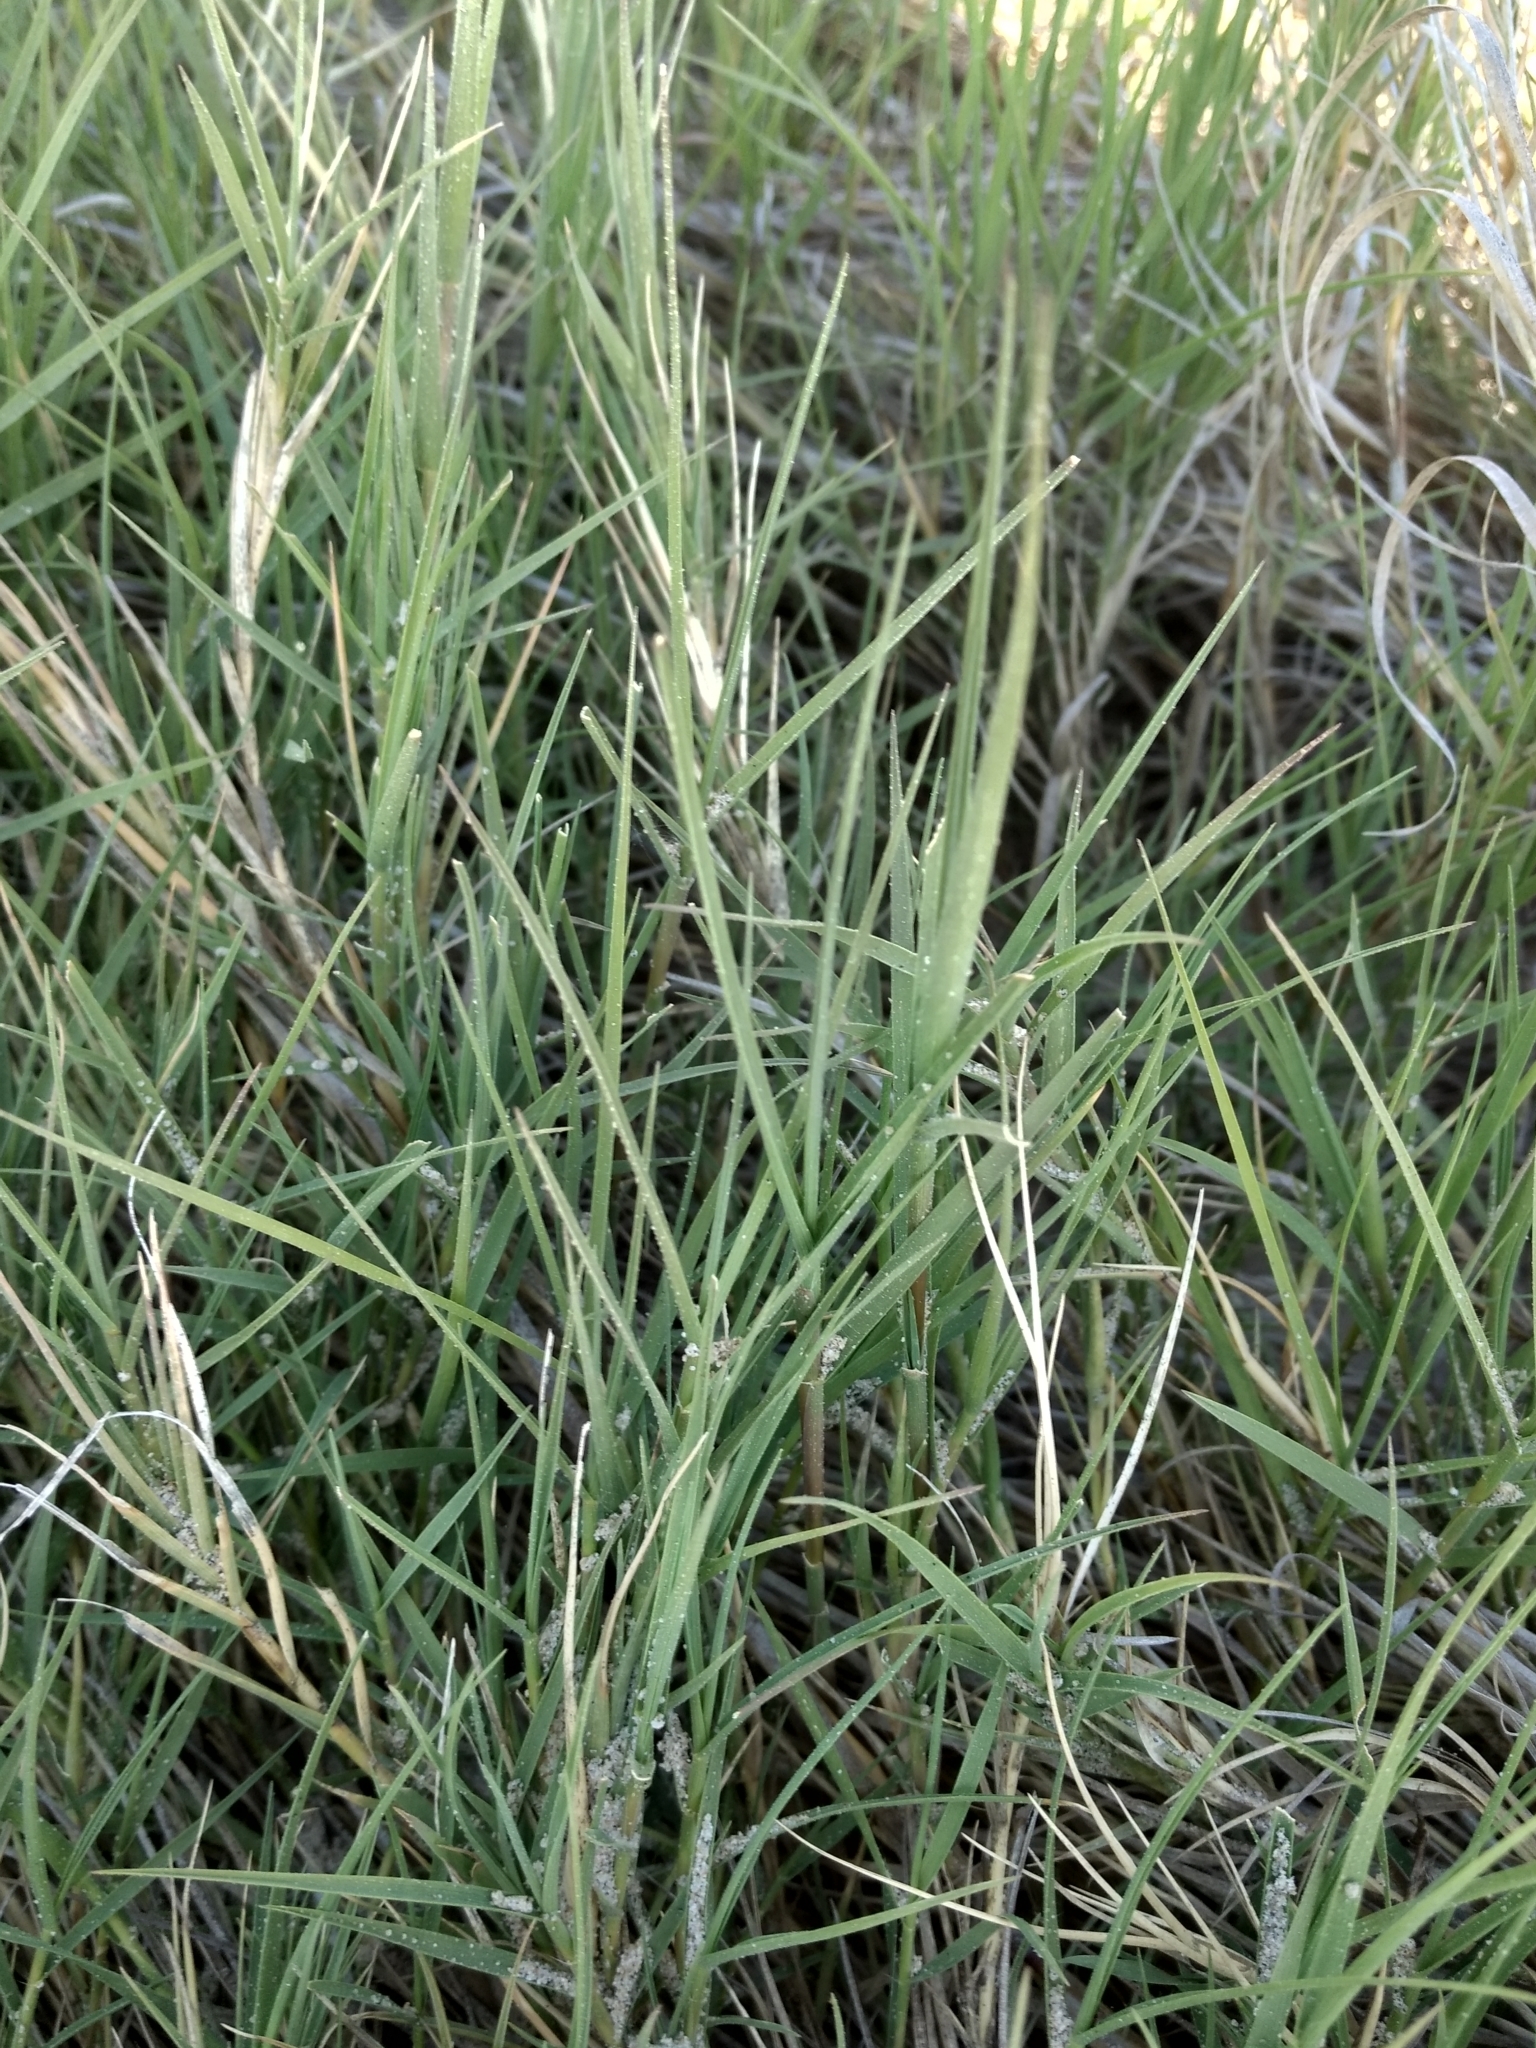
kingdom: Plantae
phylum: Tracheophyta
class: Liliopsida
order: Poales
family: Poaceae
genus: Distichlis
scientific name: Distichlis spicata
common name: Saltgrass
